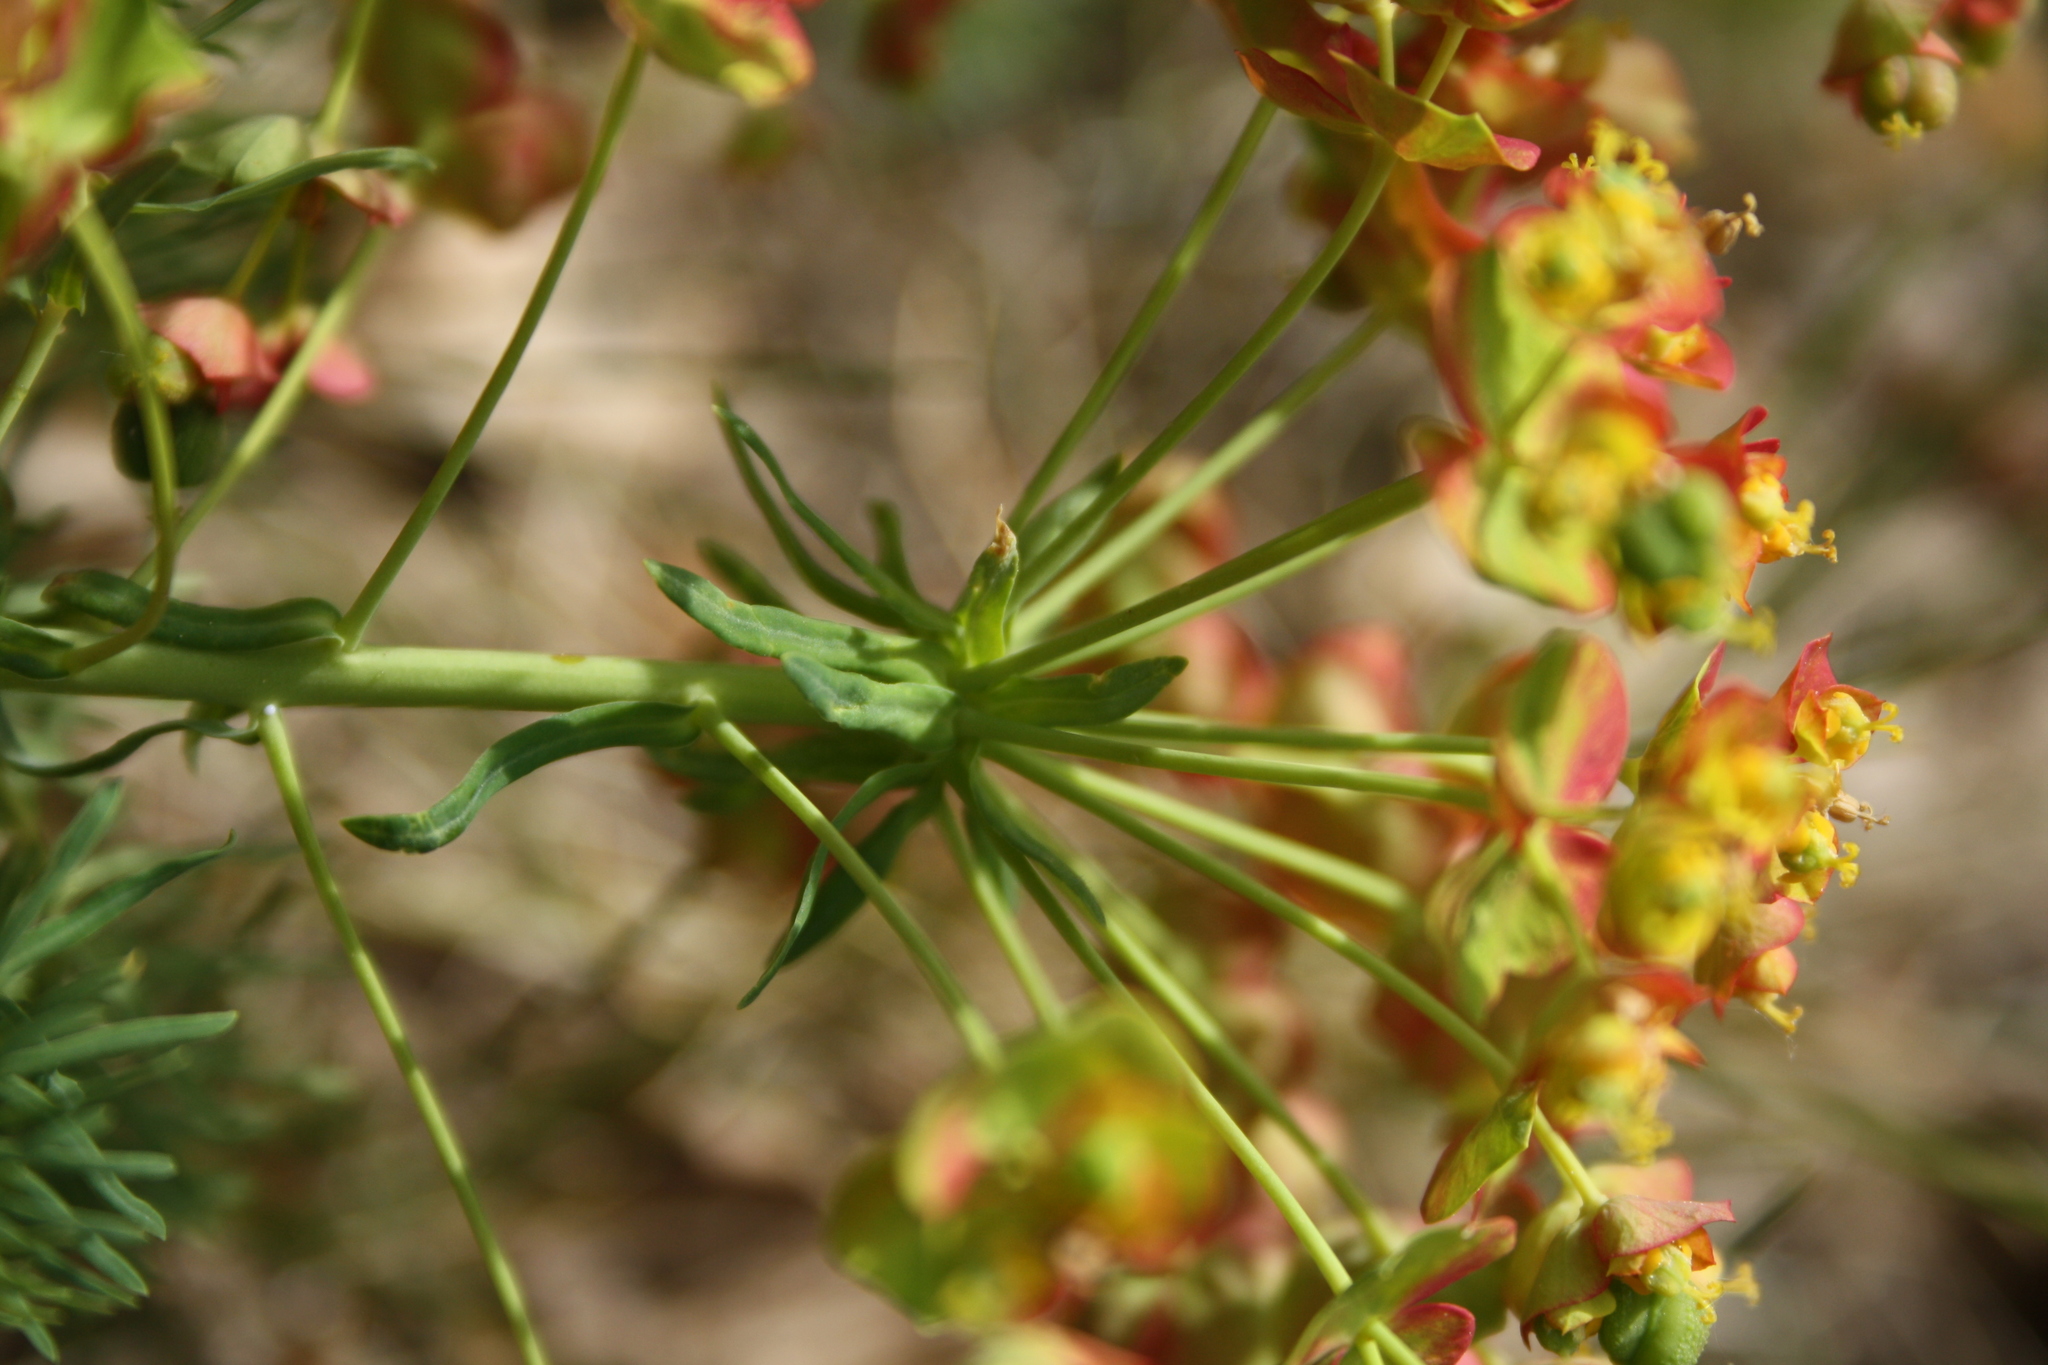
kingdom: Plantae
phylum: Tracheophyta
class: Magnoliopsida
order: Malpighiales
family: Euphorbiaceae
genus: Euphorbia
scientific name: Euphorbia cyparissias
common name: Cypress spurge
